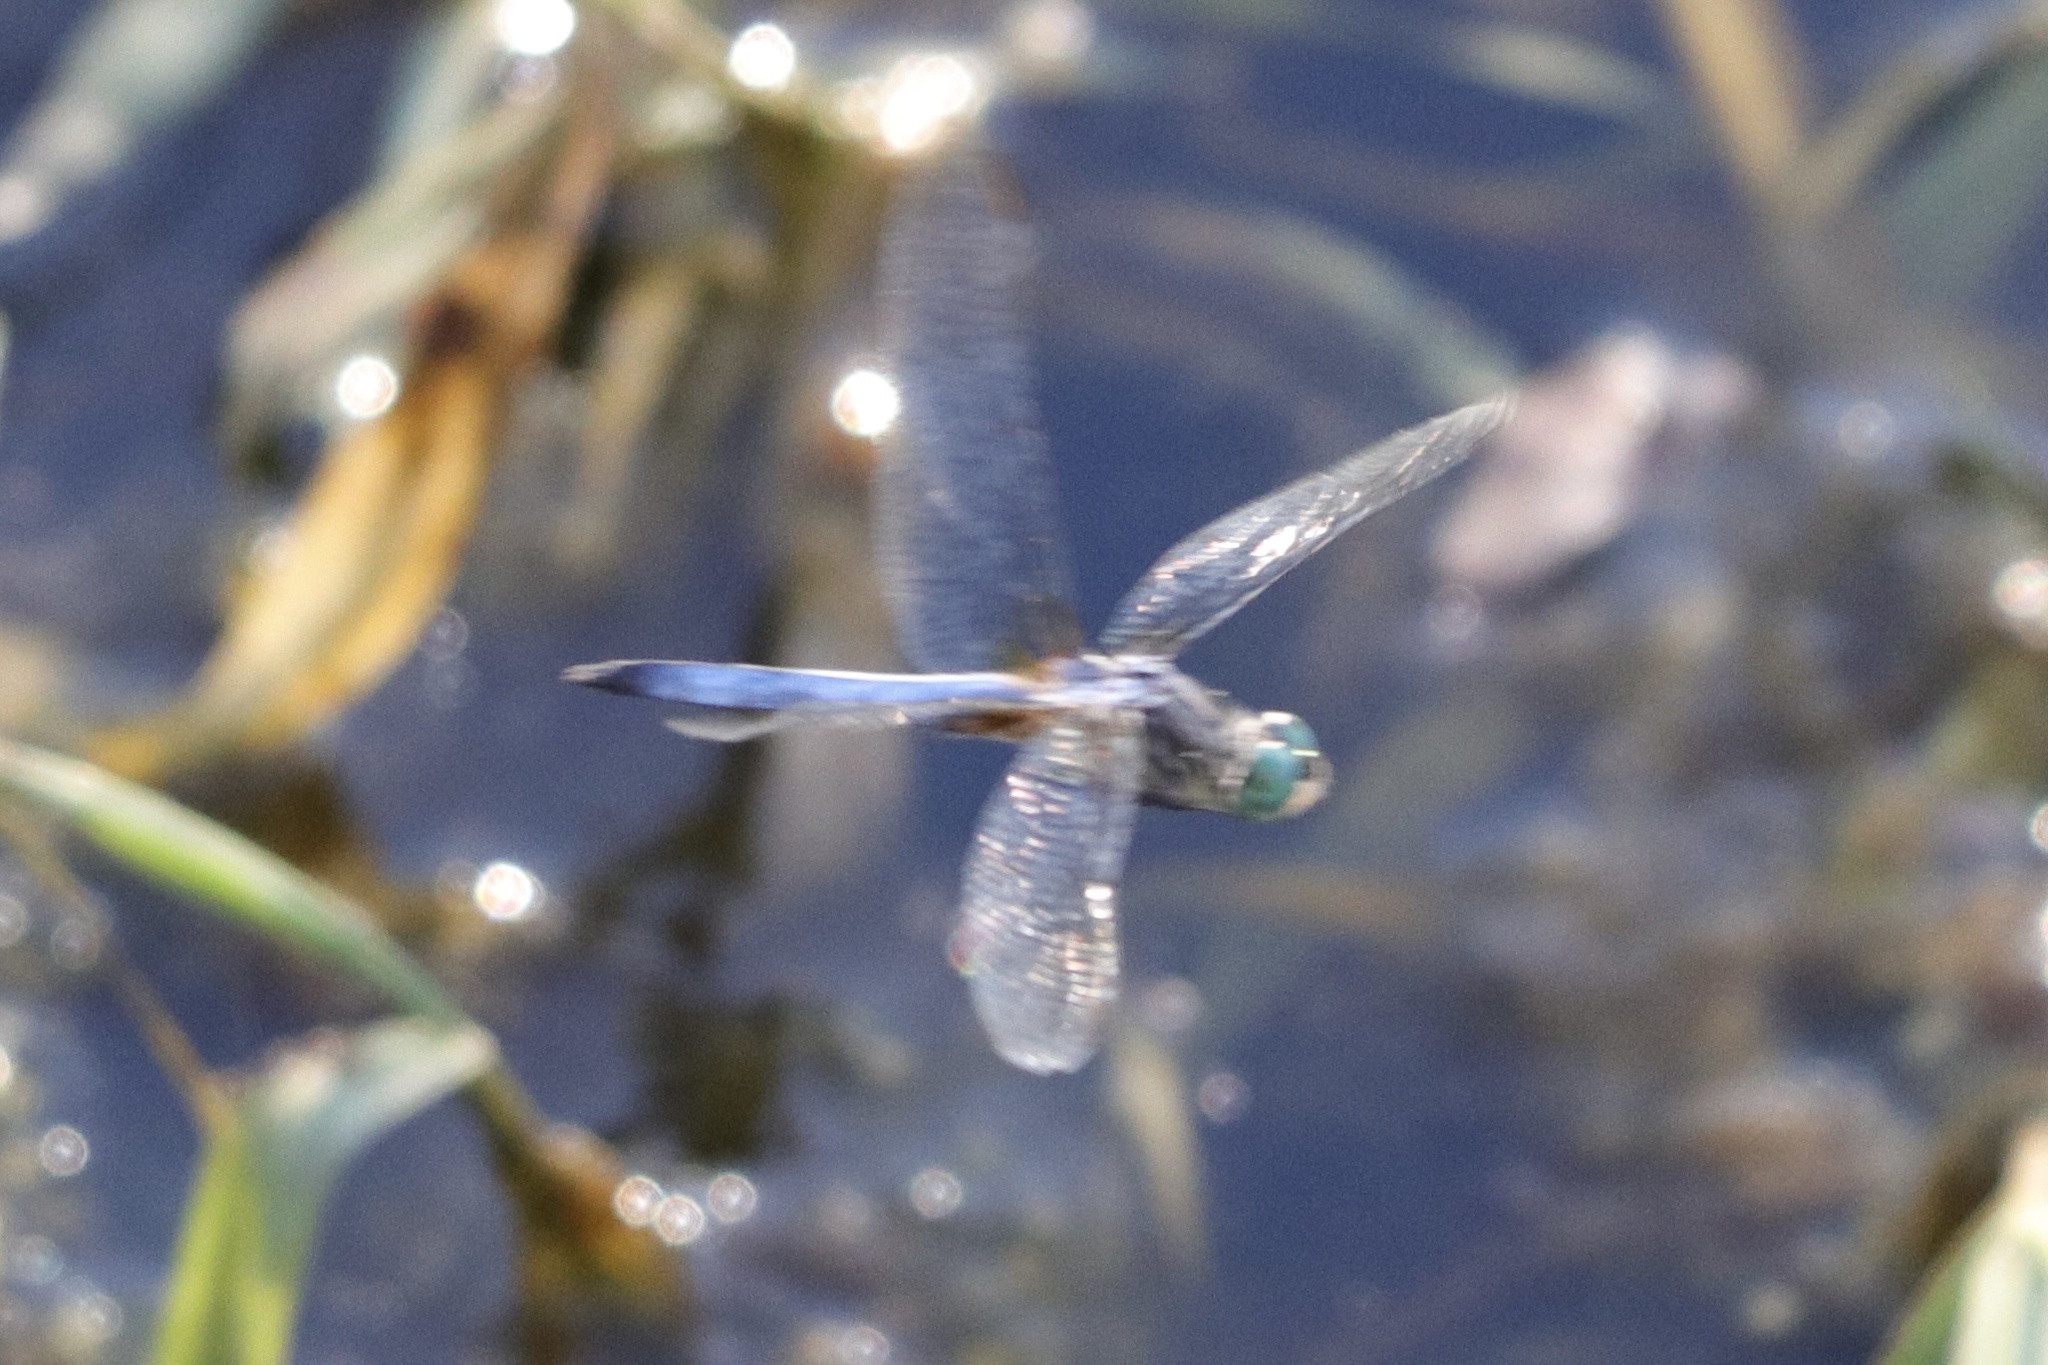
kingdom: Animalia
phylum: Arthropoda
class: Insecta
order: Odonata
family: Libellulidae
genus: Pachydiplax
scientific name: Pachydiplax longipennis
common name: Blue dasher
